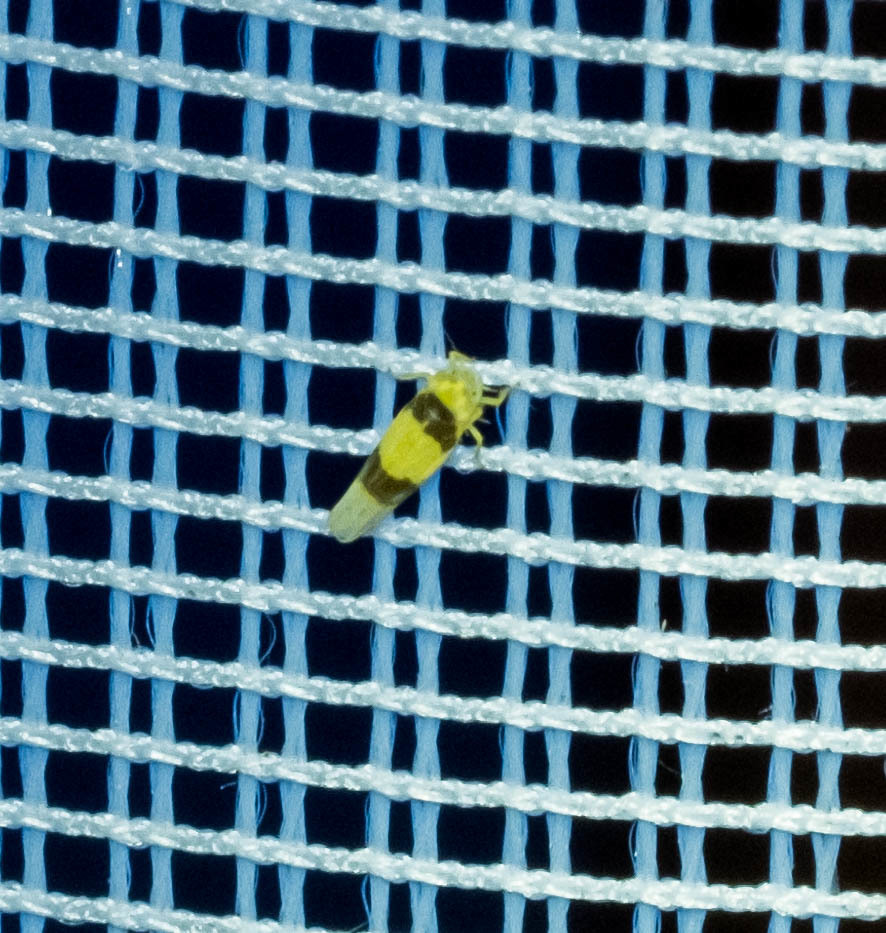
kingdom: Animalia
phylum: Arthropoda
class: Insecta
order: Hemiptera
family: Cicadellidae
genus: Zonocyba
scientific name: Zonocyba bifasciata
